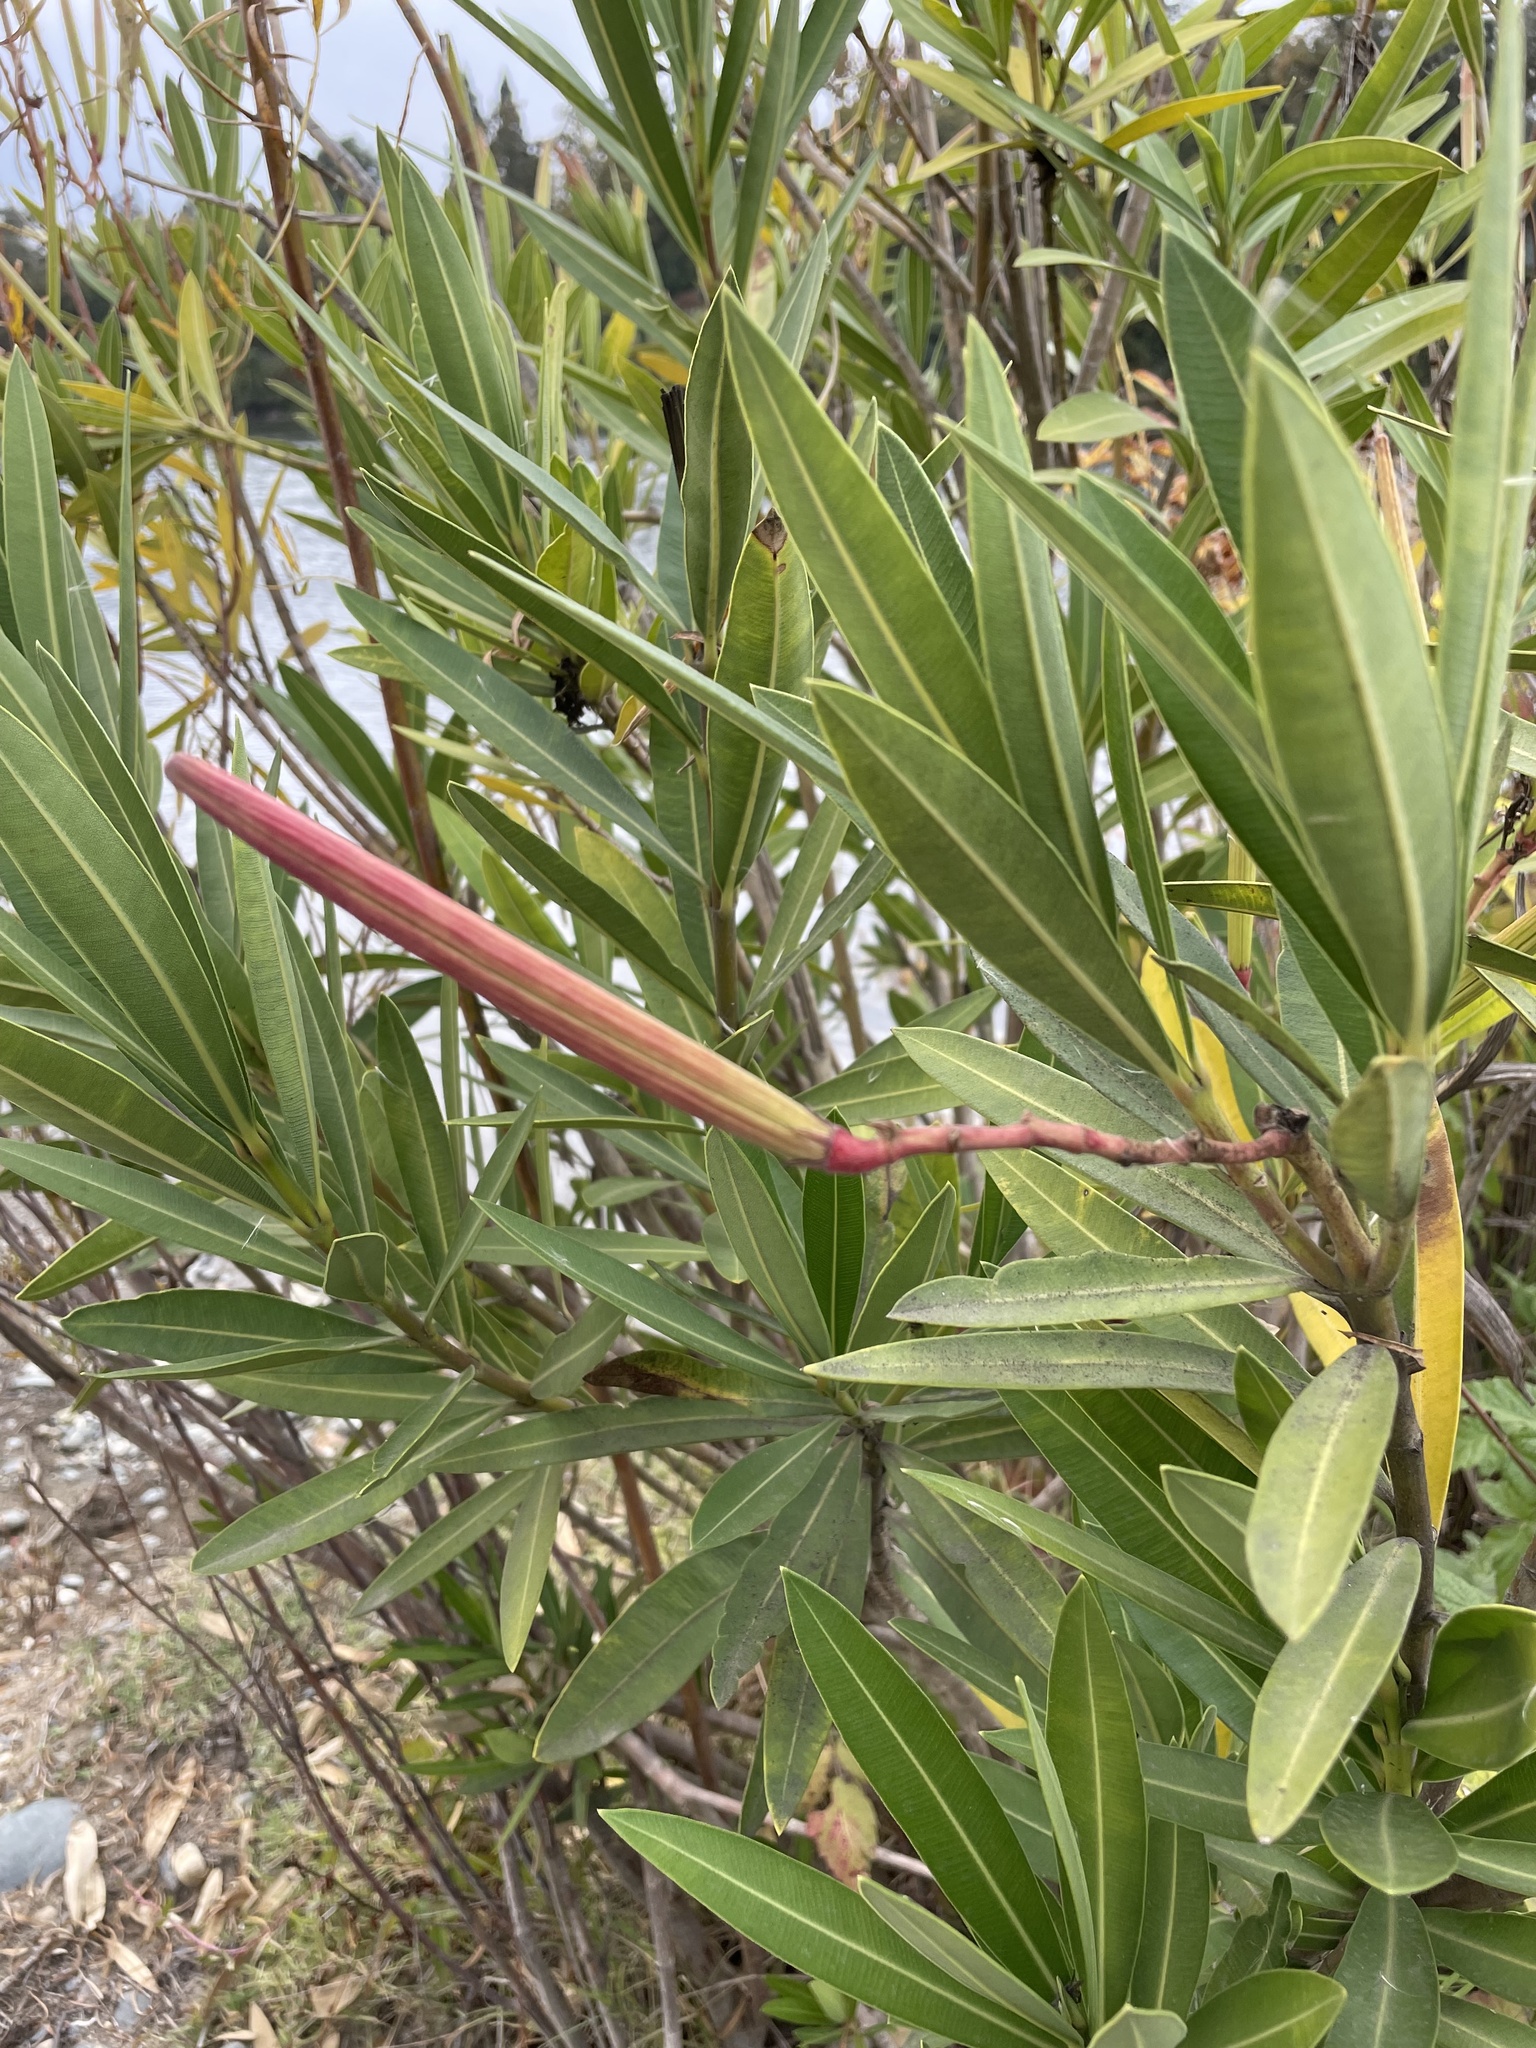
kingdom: Plantae
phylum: Tracheophyta
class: Magnoliopsida
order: Gentianales
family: Apocynaceae
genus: Nerium
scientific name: Nerium oleander
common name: Oleander
